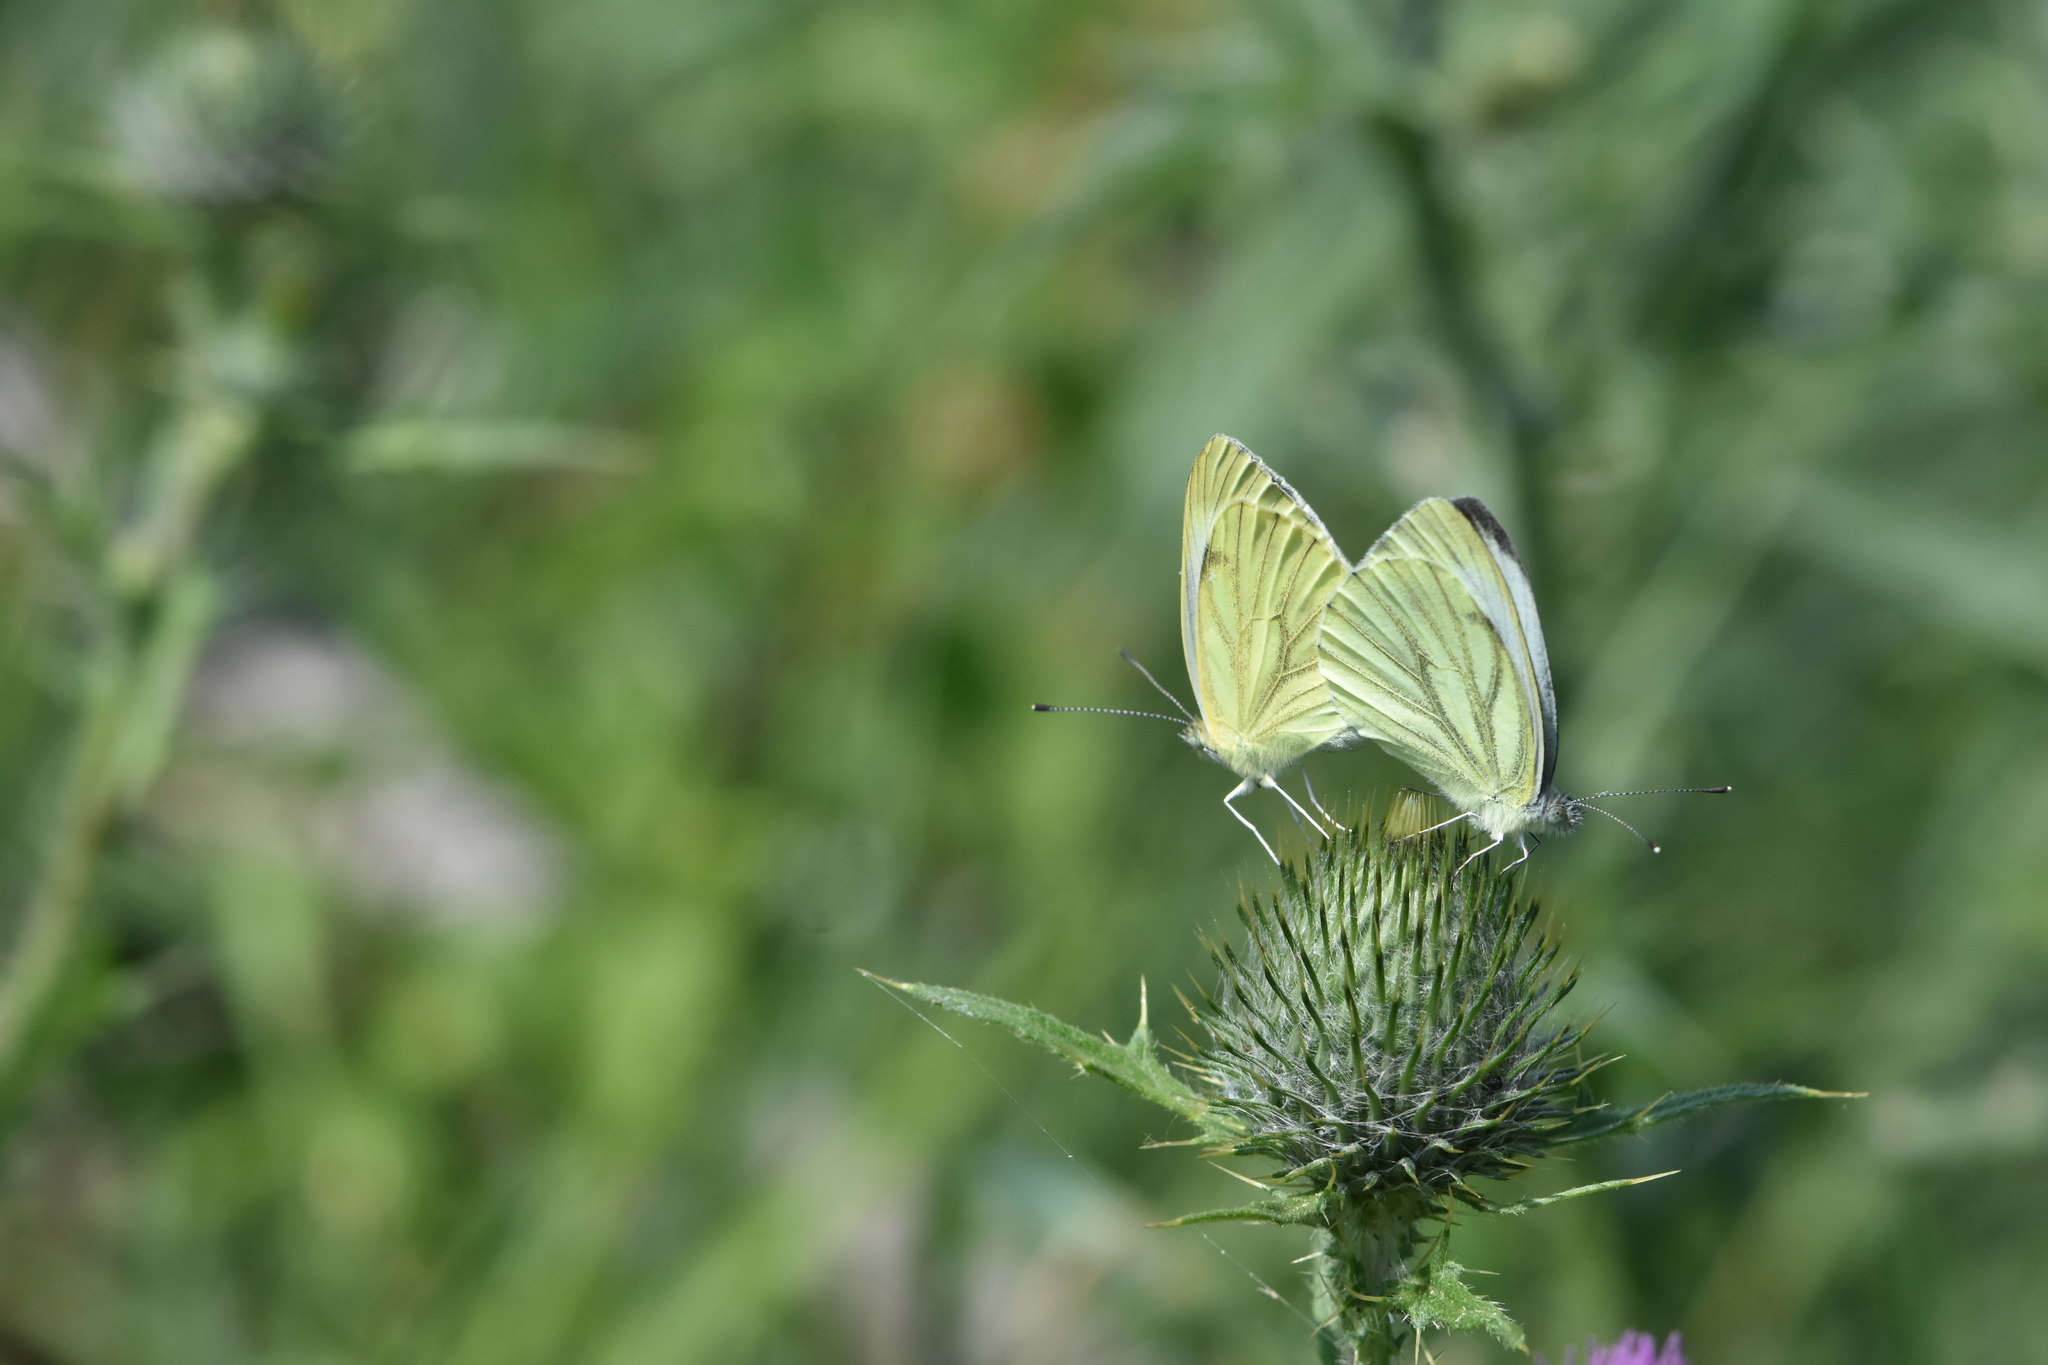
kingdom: Animalia
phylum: Arthropoda
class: Insecta
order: Lepidoptera
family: Pieridae
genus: Pieris
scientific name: Pieris napi
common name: Green-veined white
